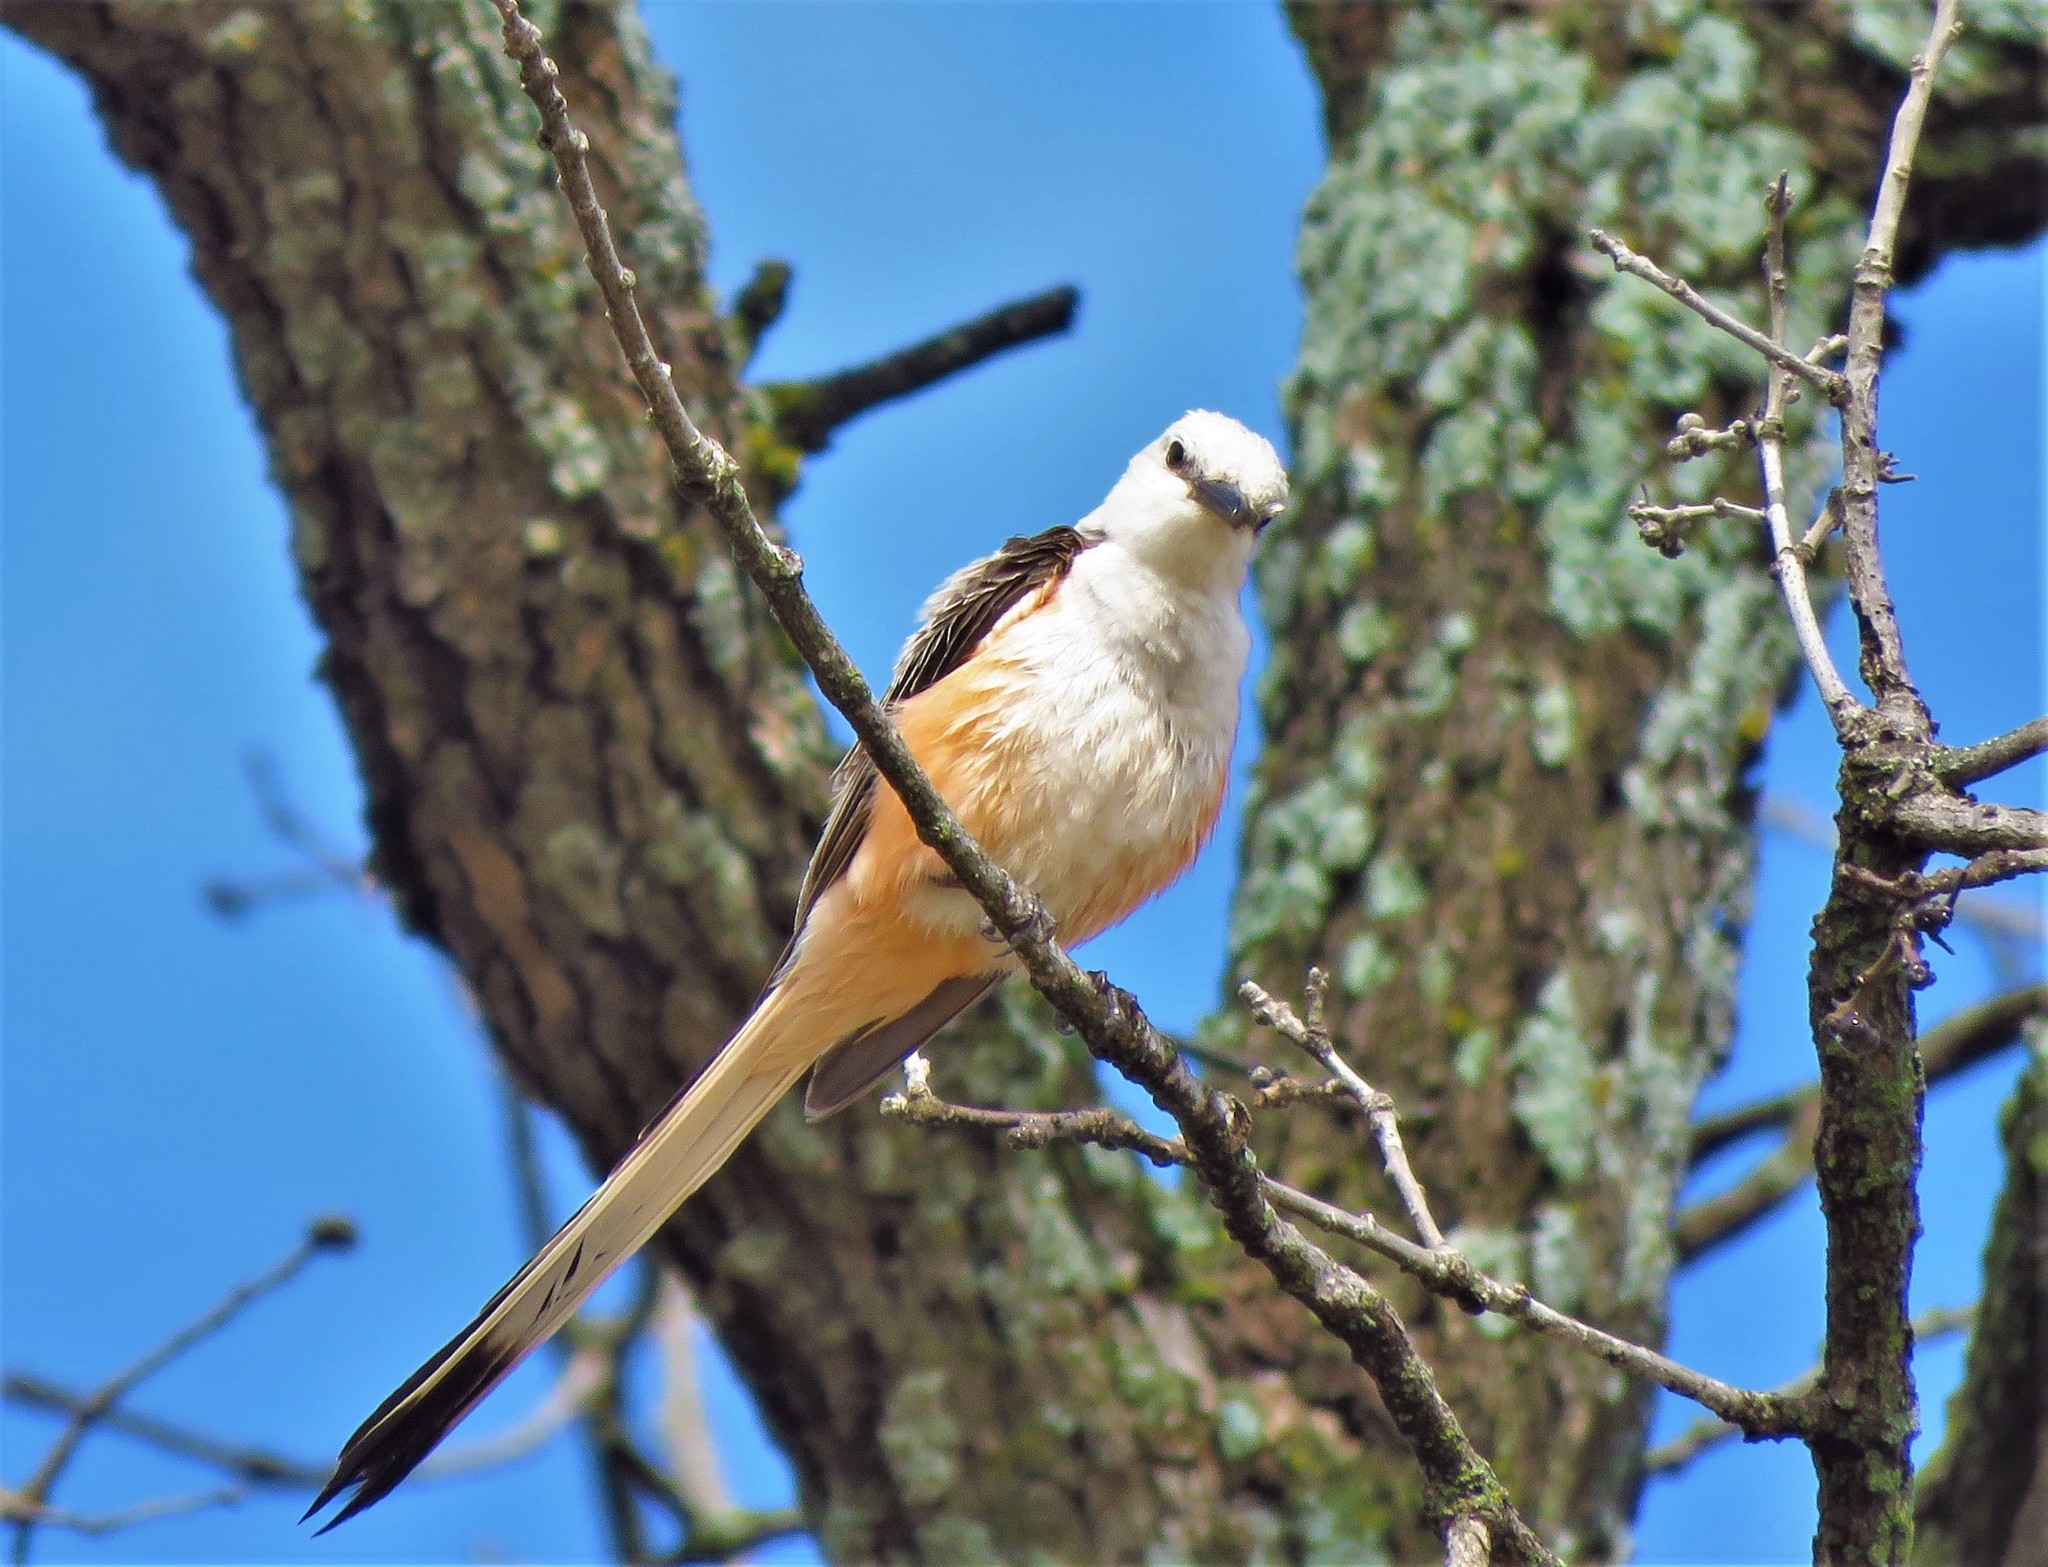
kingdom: Animalia
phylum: Chordata
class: Aves
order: Passeriformes
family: Tyrannidae
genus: Tyrannus
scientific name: Tyrannus forficatus
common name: Scissor-tailed flycatcher
